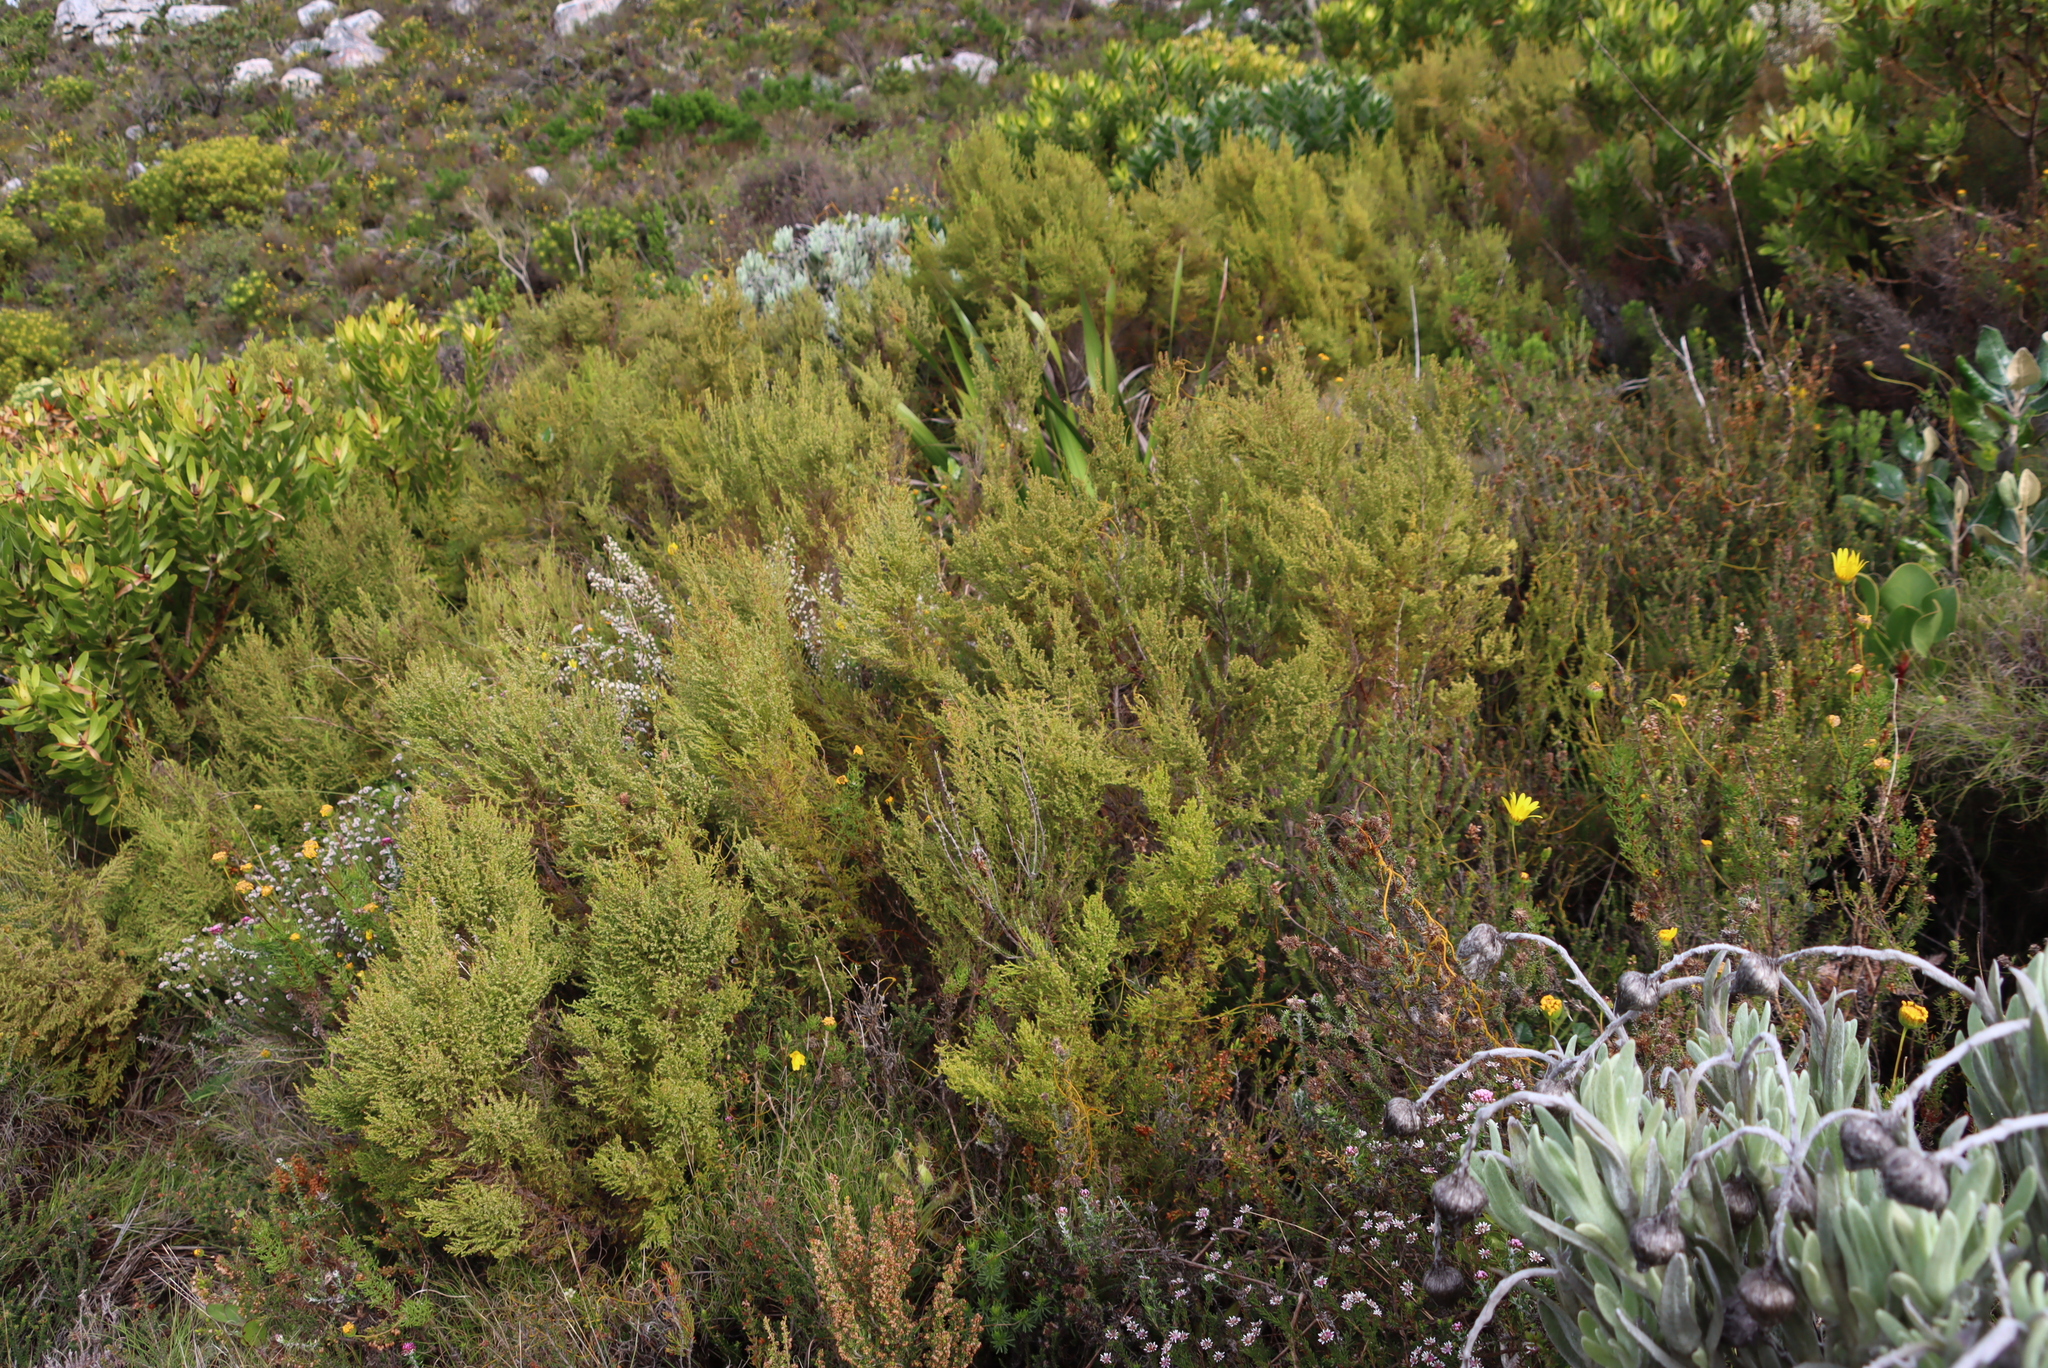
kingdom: Plantae
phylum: Tracheophyta
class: Magnoliopsida
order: Ericales
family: Ericaceae
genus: Erica
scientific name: Erica muscosa
